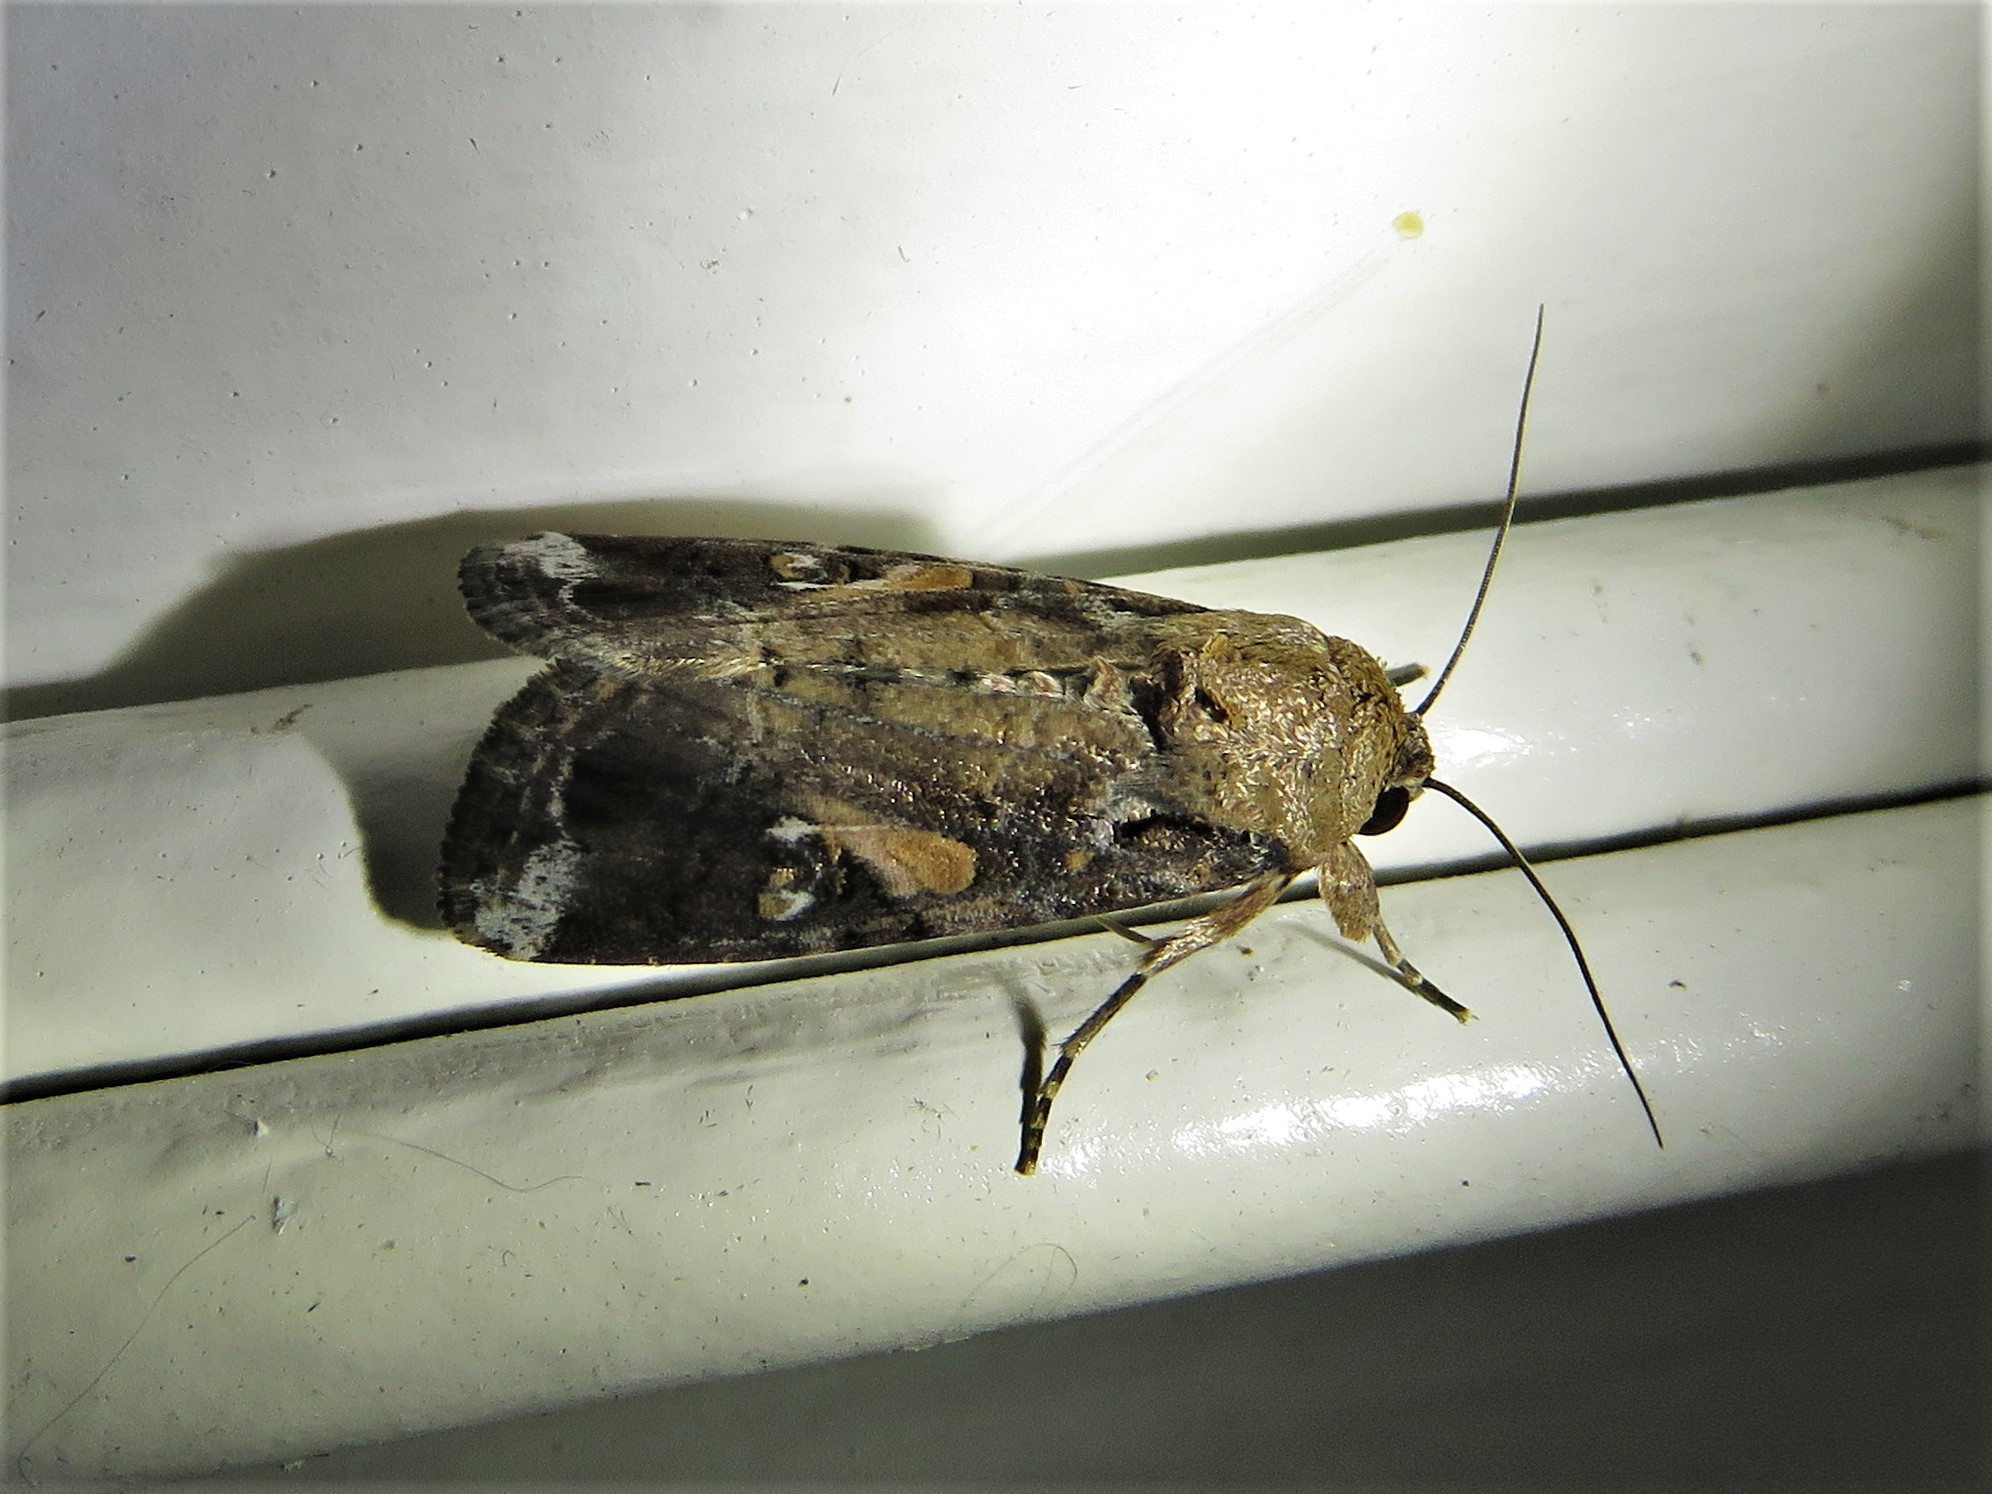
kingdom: Animalia
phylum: Arthropoda
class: Insecta
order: Lepidoptera
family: Noctuidae
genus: Spodoptera
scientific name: Spodoptera frugiperda
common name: Fall armyworm
